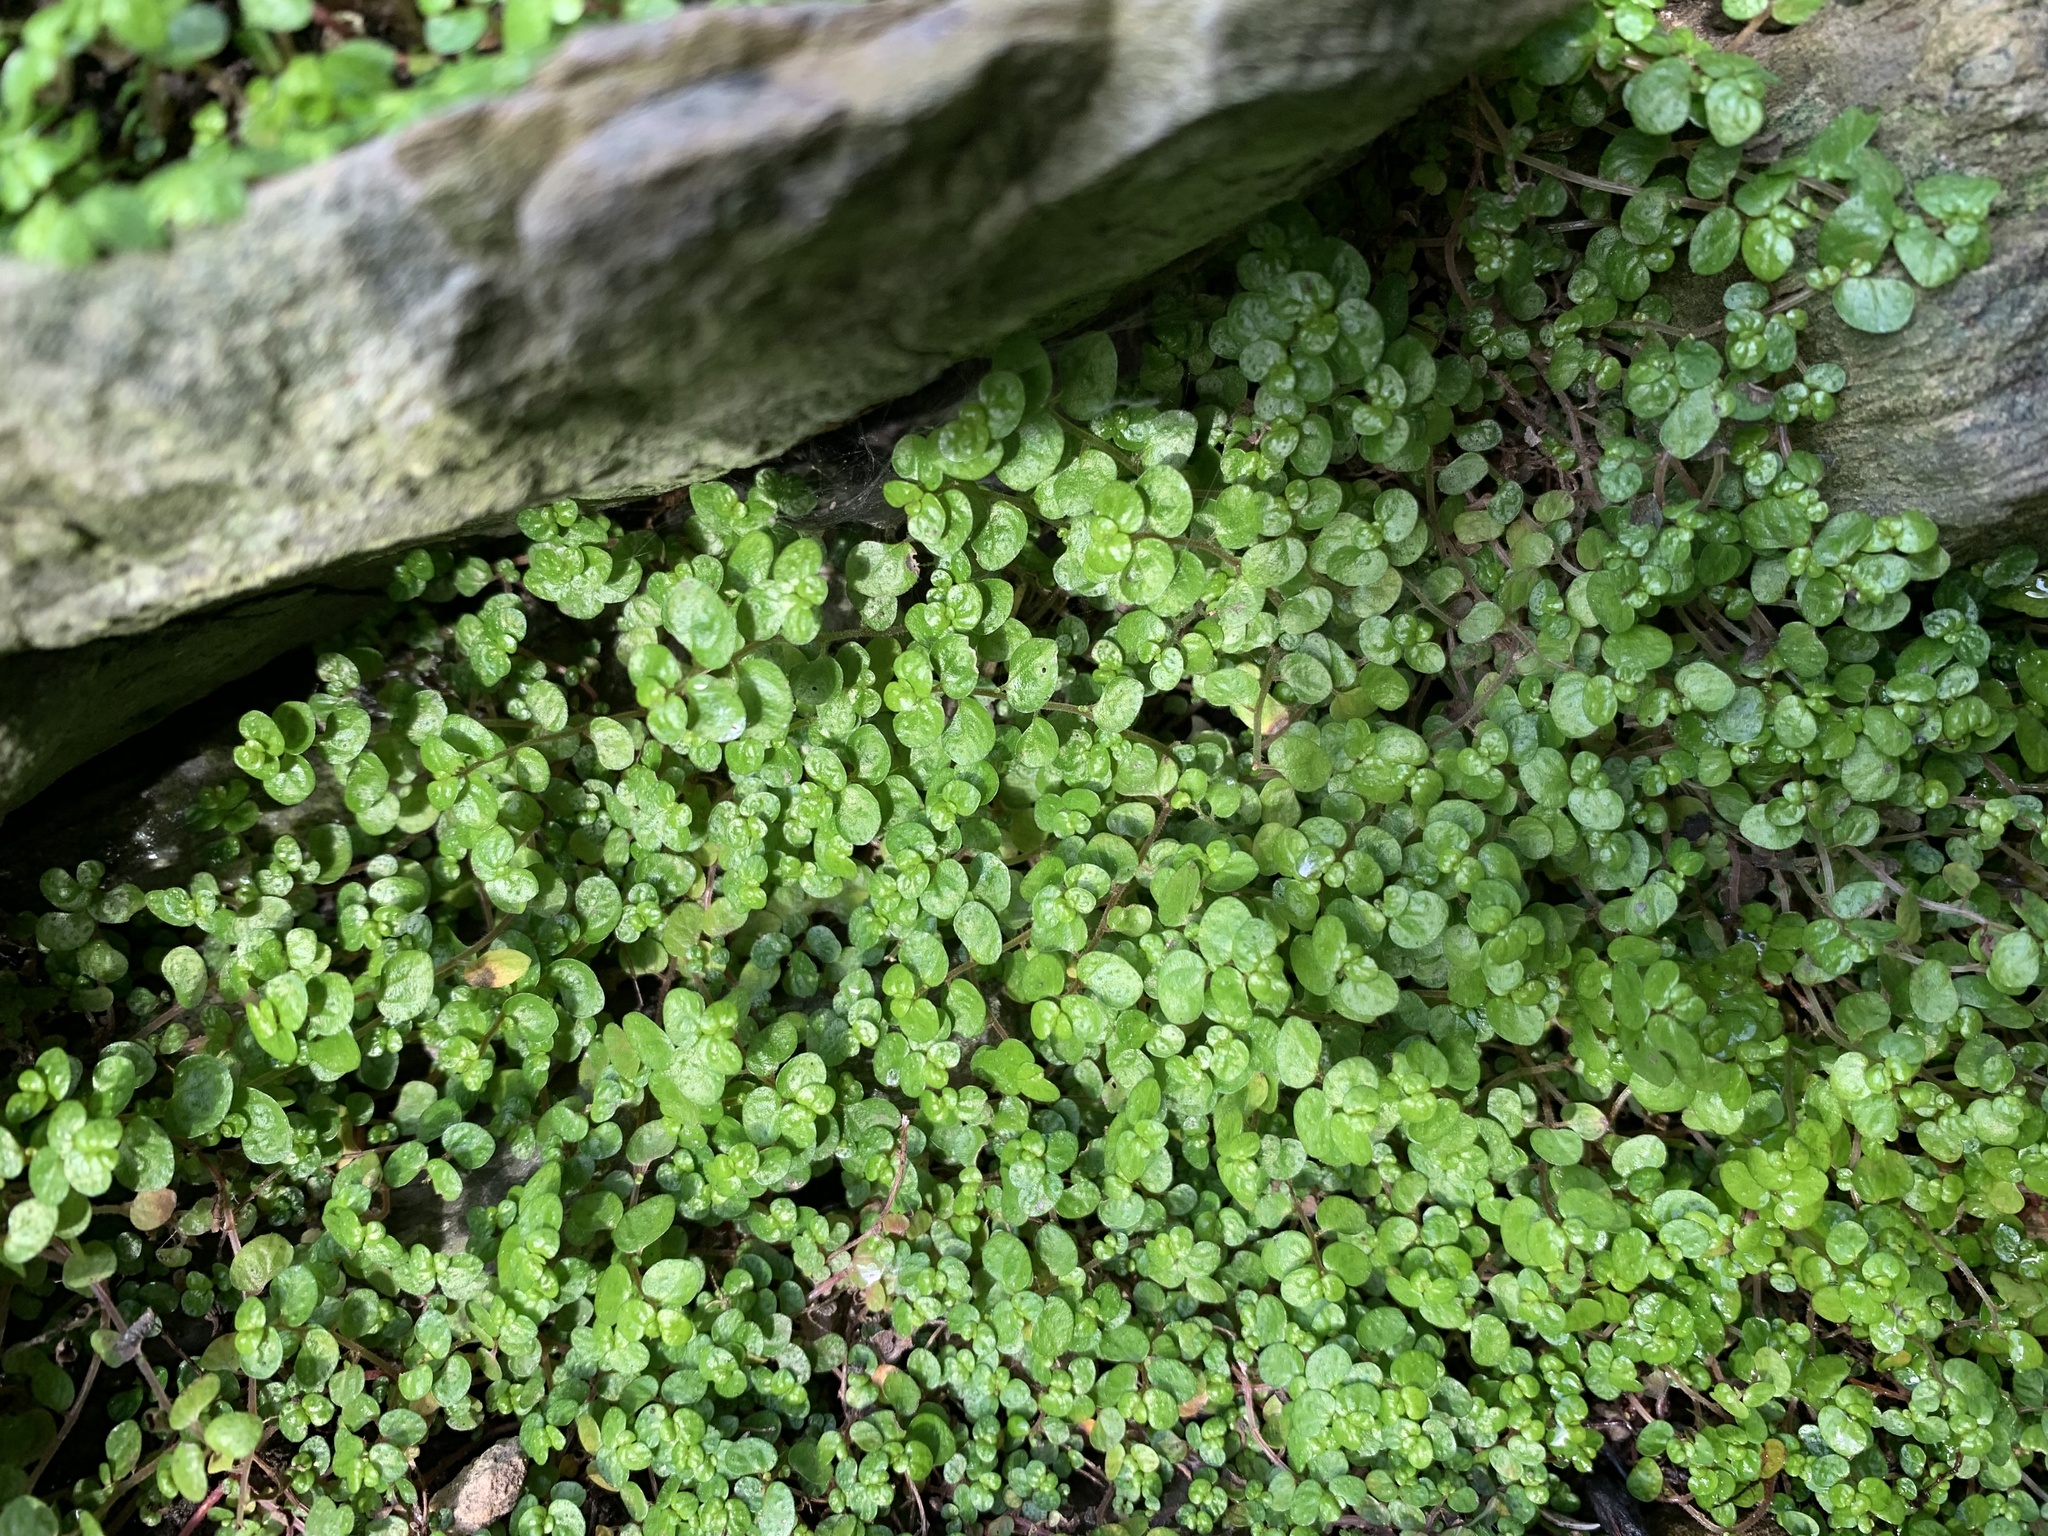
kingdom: Plantae
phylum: Tracheophyta
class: Magnoliopsida
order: Rosales
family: Urticaceae
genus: Soleirolia
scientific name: Soleirolia soleirolii
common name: Mind-your-own-business
